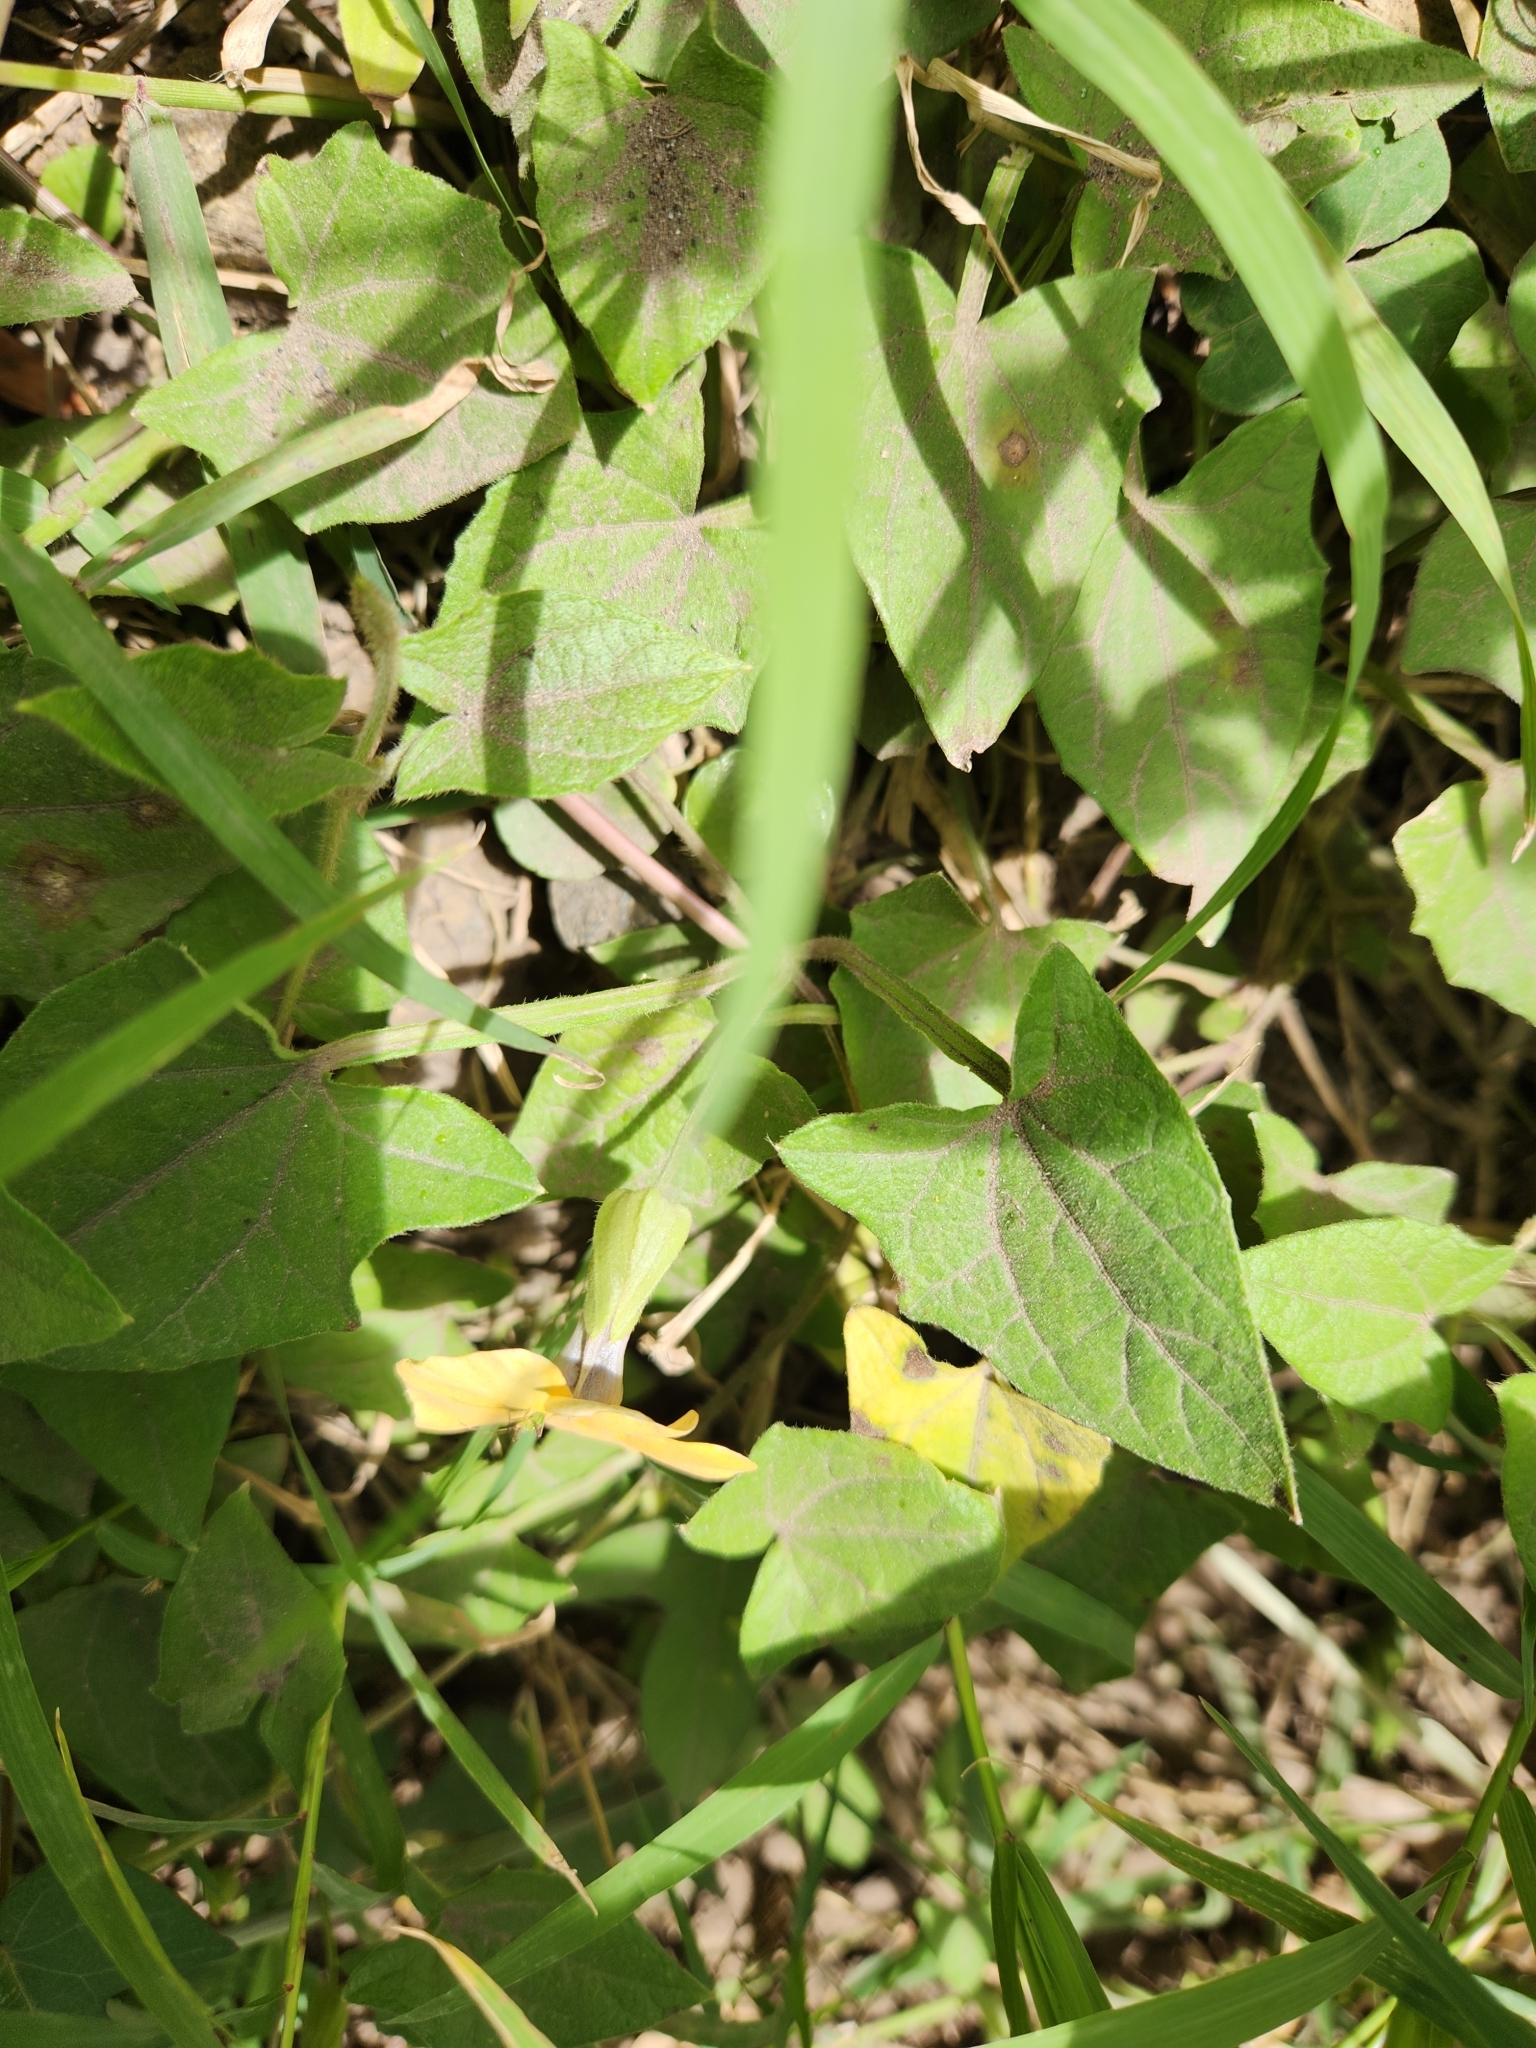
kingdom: Plantae
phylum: Tracheophyta
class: Magnoliopsida
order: Lamiales
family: Acanthaceae
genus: Thunbergia
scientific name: Thunbergia alata
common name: Blackeyed susan vine
